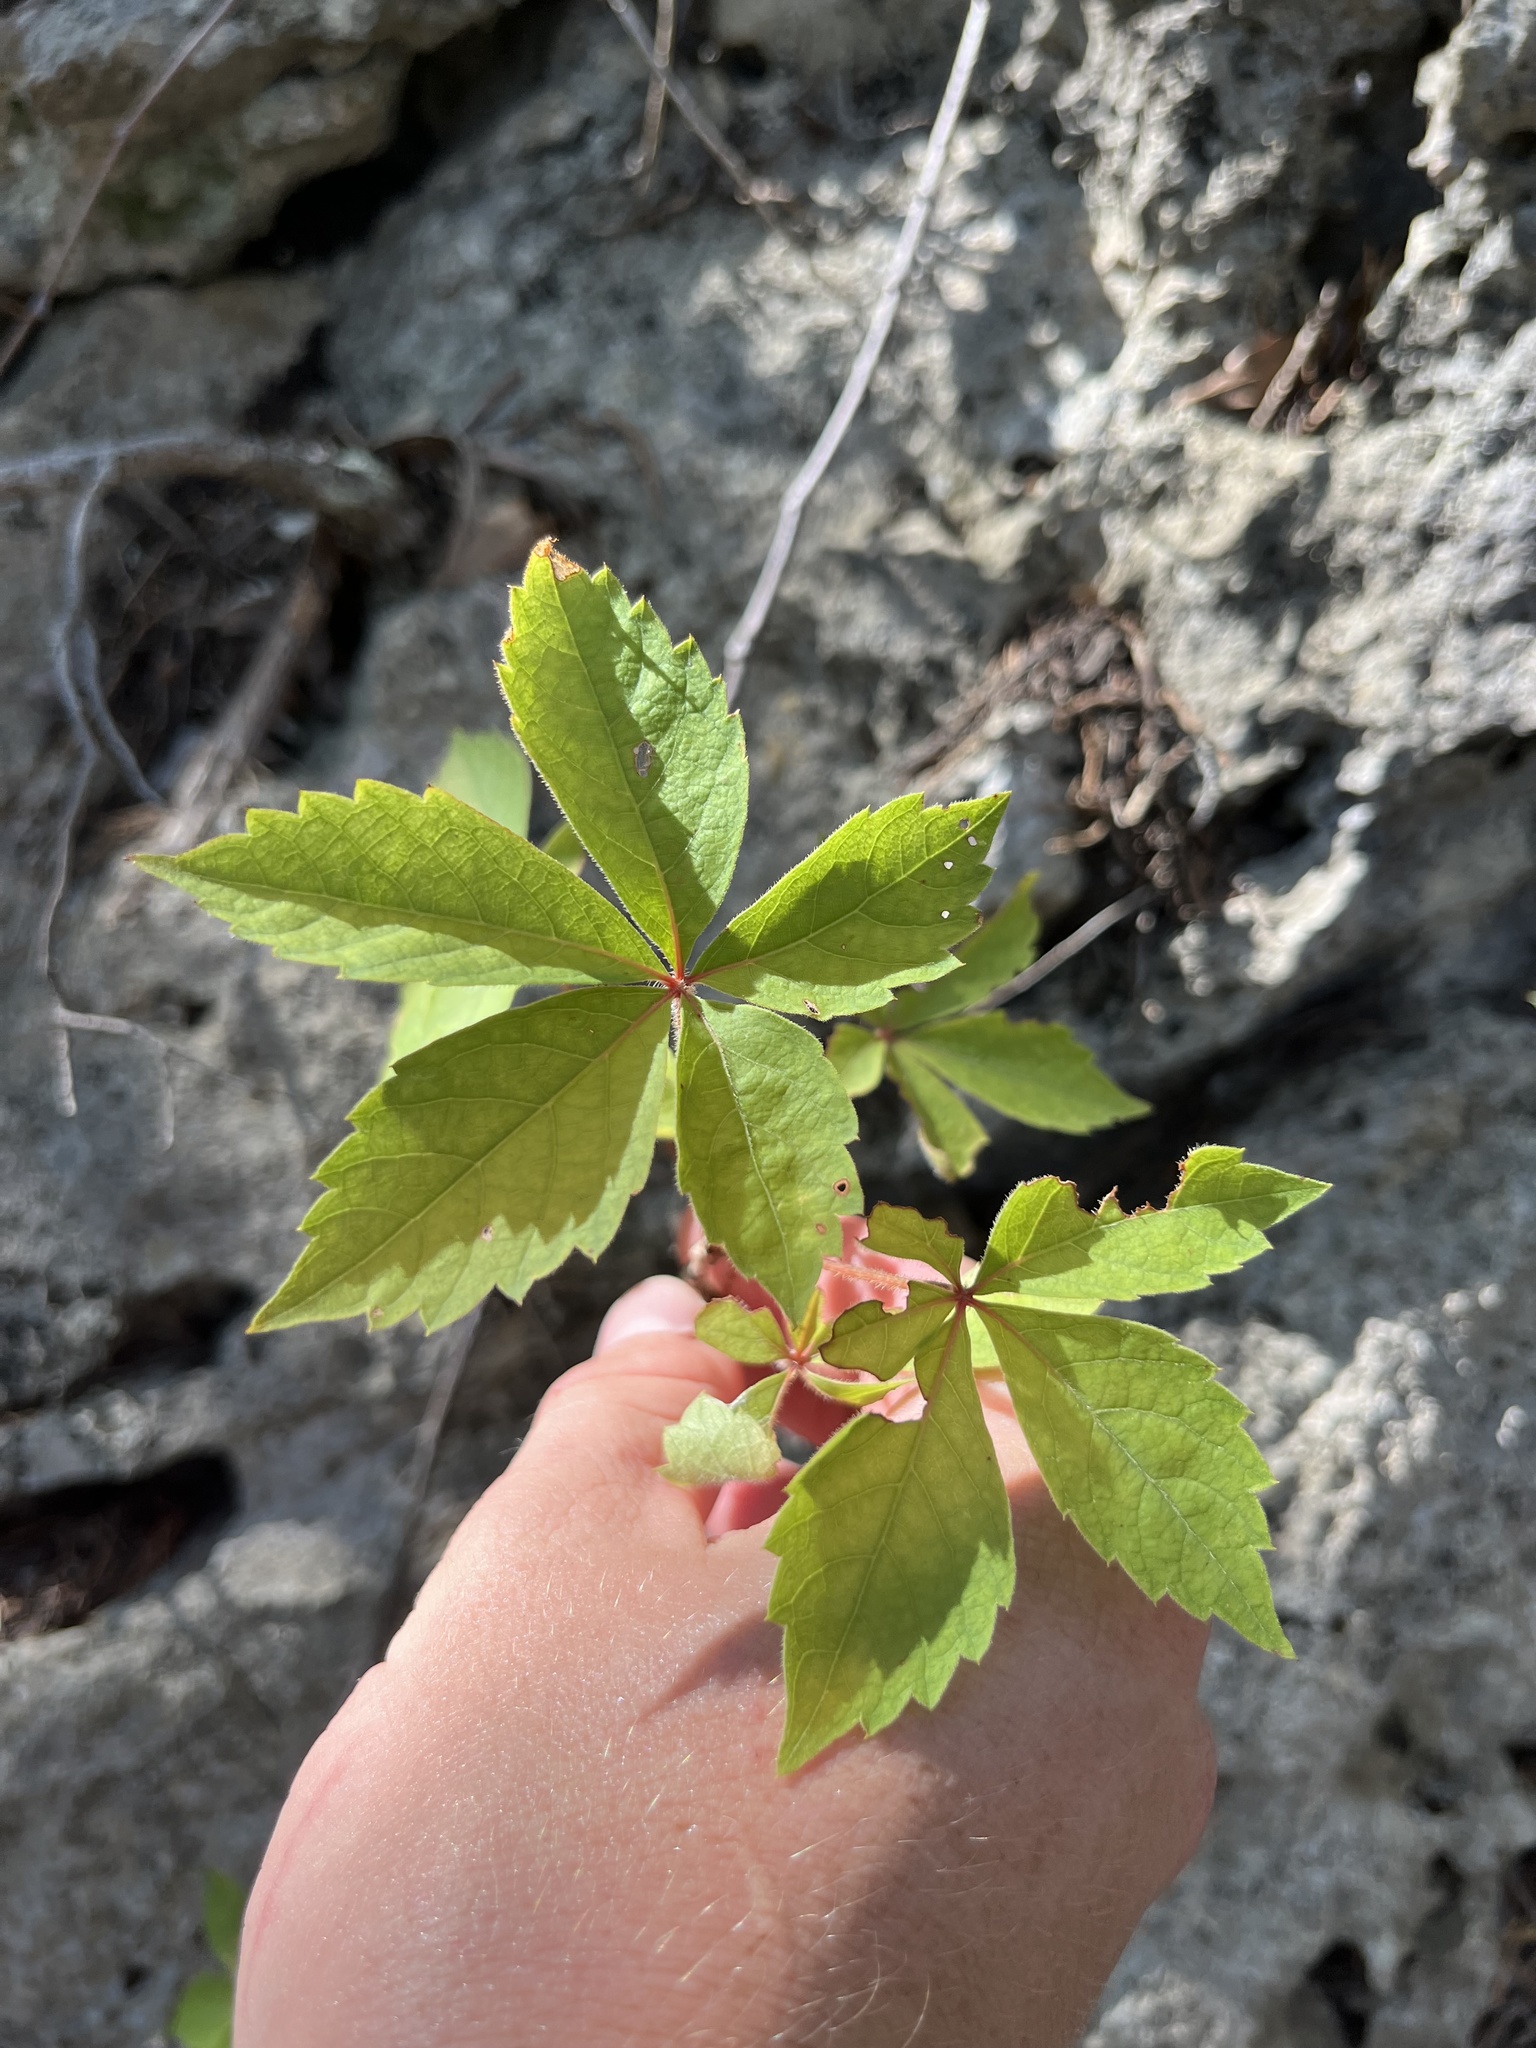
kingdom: Plantae
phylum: Tracheophyta
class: Magnoliopsida
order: Vitales
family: Vitaceae
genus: Parthenocissus
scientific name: Parthenocissus quinquefolia
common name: Virginia-creeper
